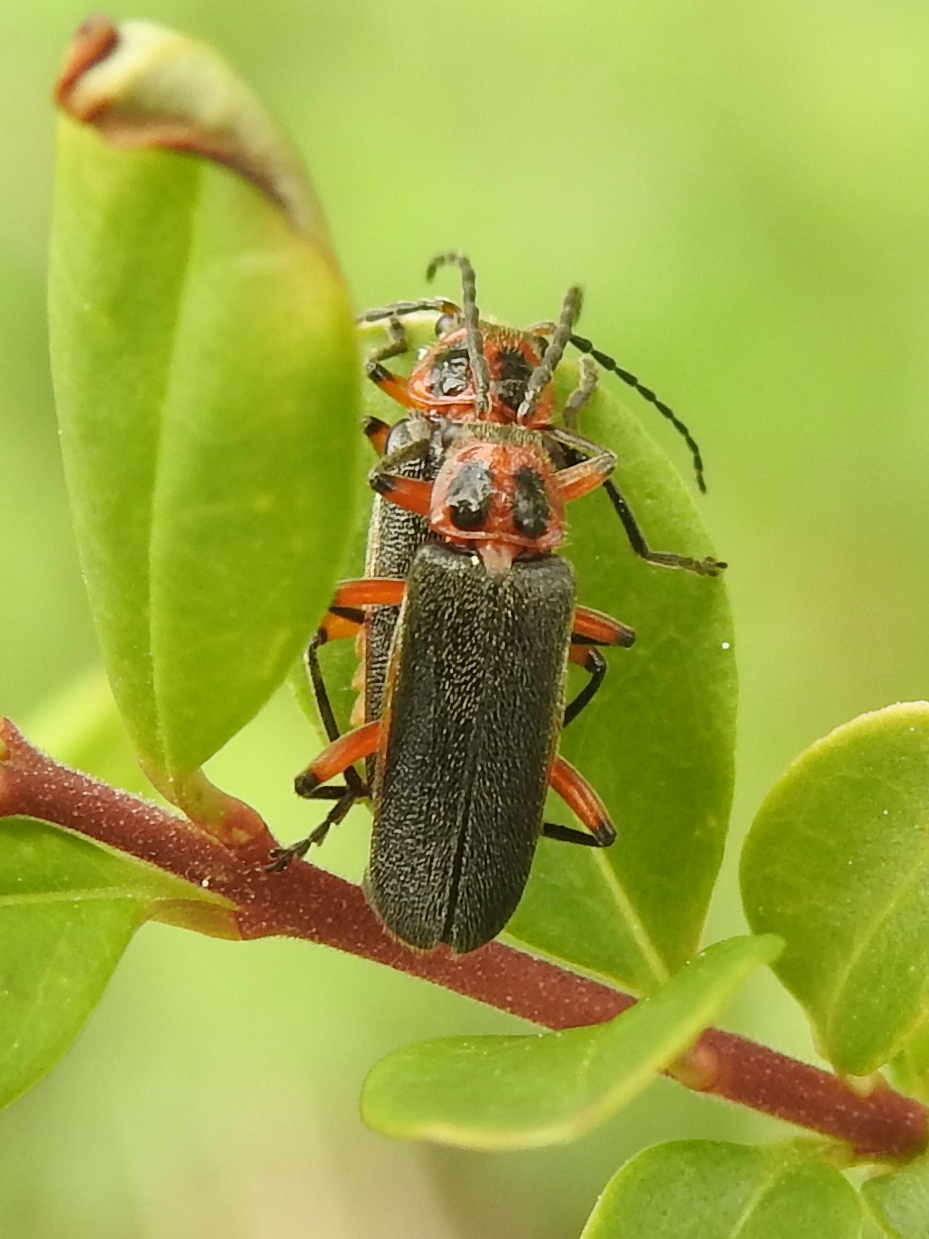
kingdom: Animalia
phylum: Arthropoda
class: Insecta
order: Coleoptera
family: Cantharidae
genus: Atalantycha
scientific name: Atalantycha bilineata
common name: Two-lined leatherwing
